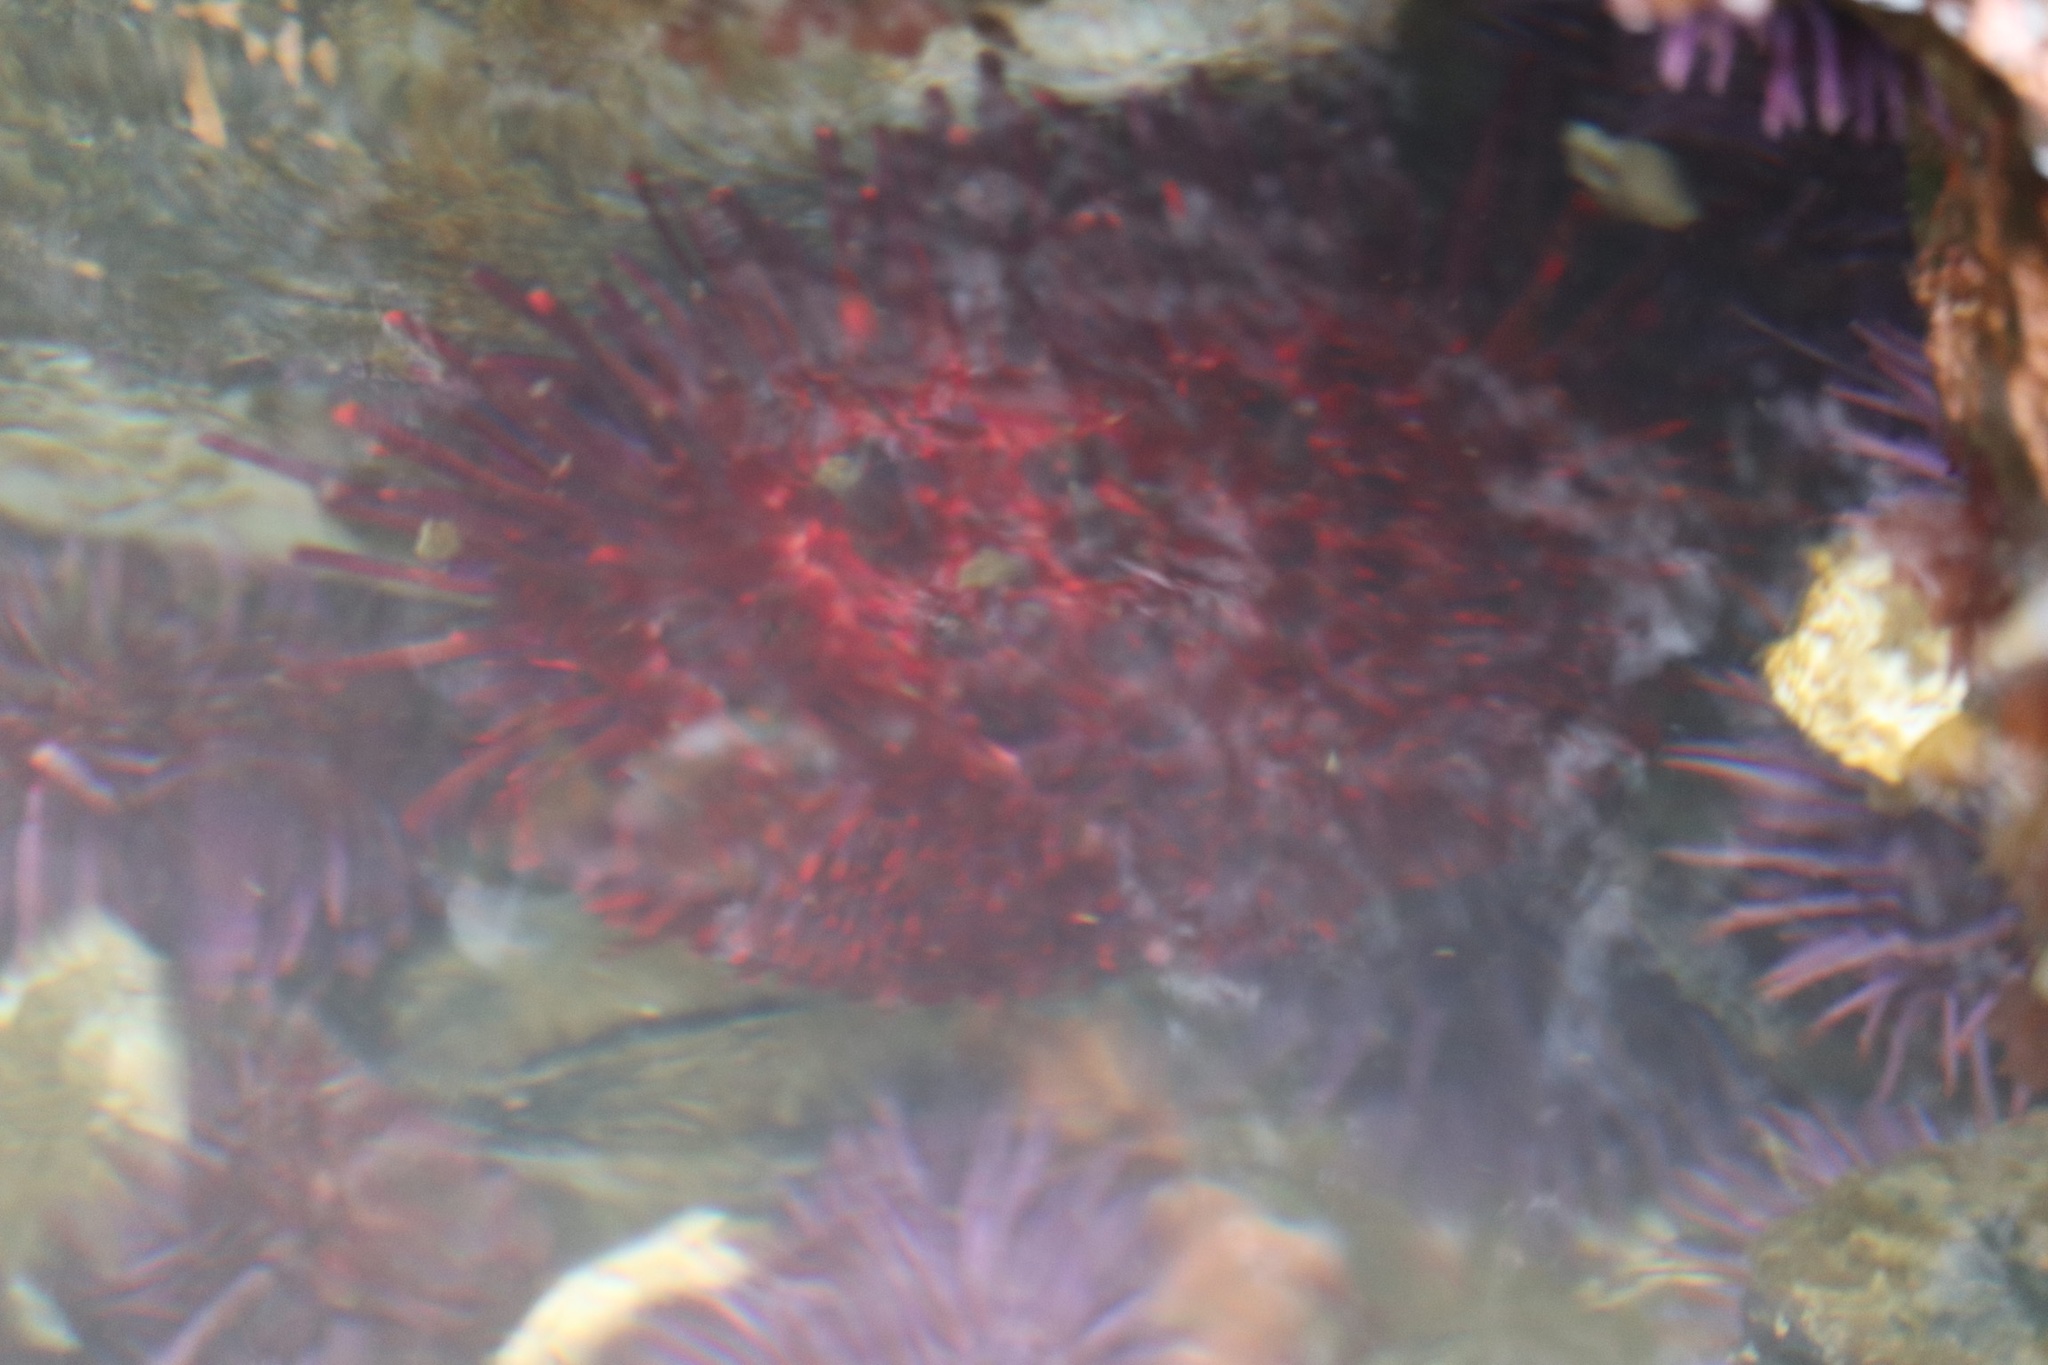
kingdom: Animalia
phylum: Echinodermata
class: Echinoidea
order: Camarodonta
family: Strongylocentrotidae
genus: Mesocentrotus
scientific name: Mesocentrotus franciscanus
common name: Red sea urchin
